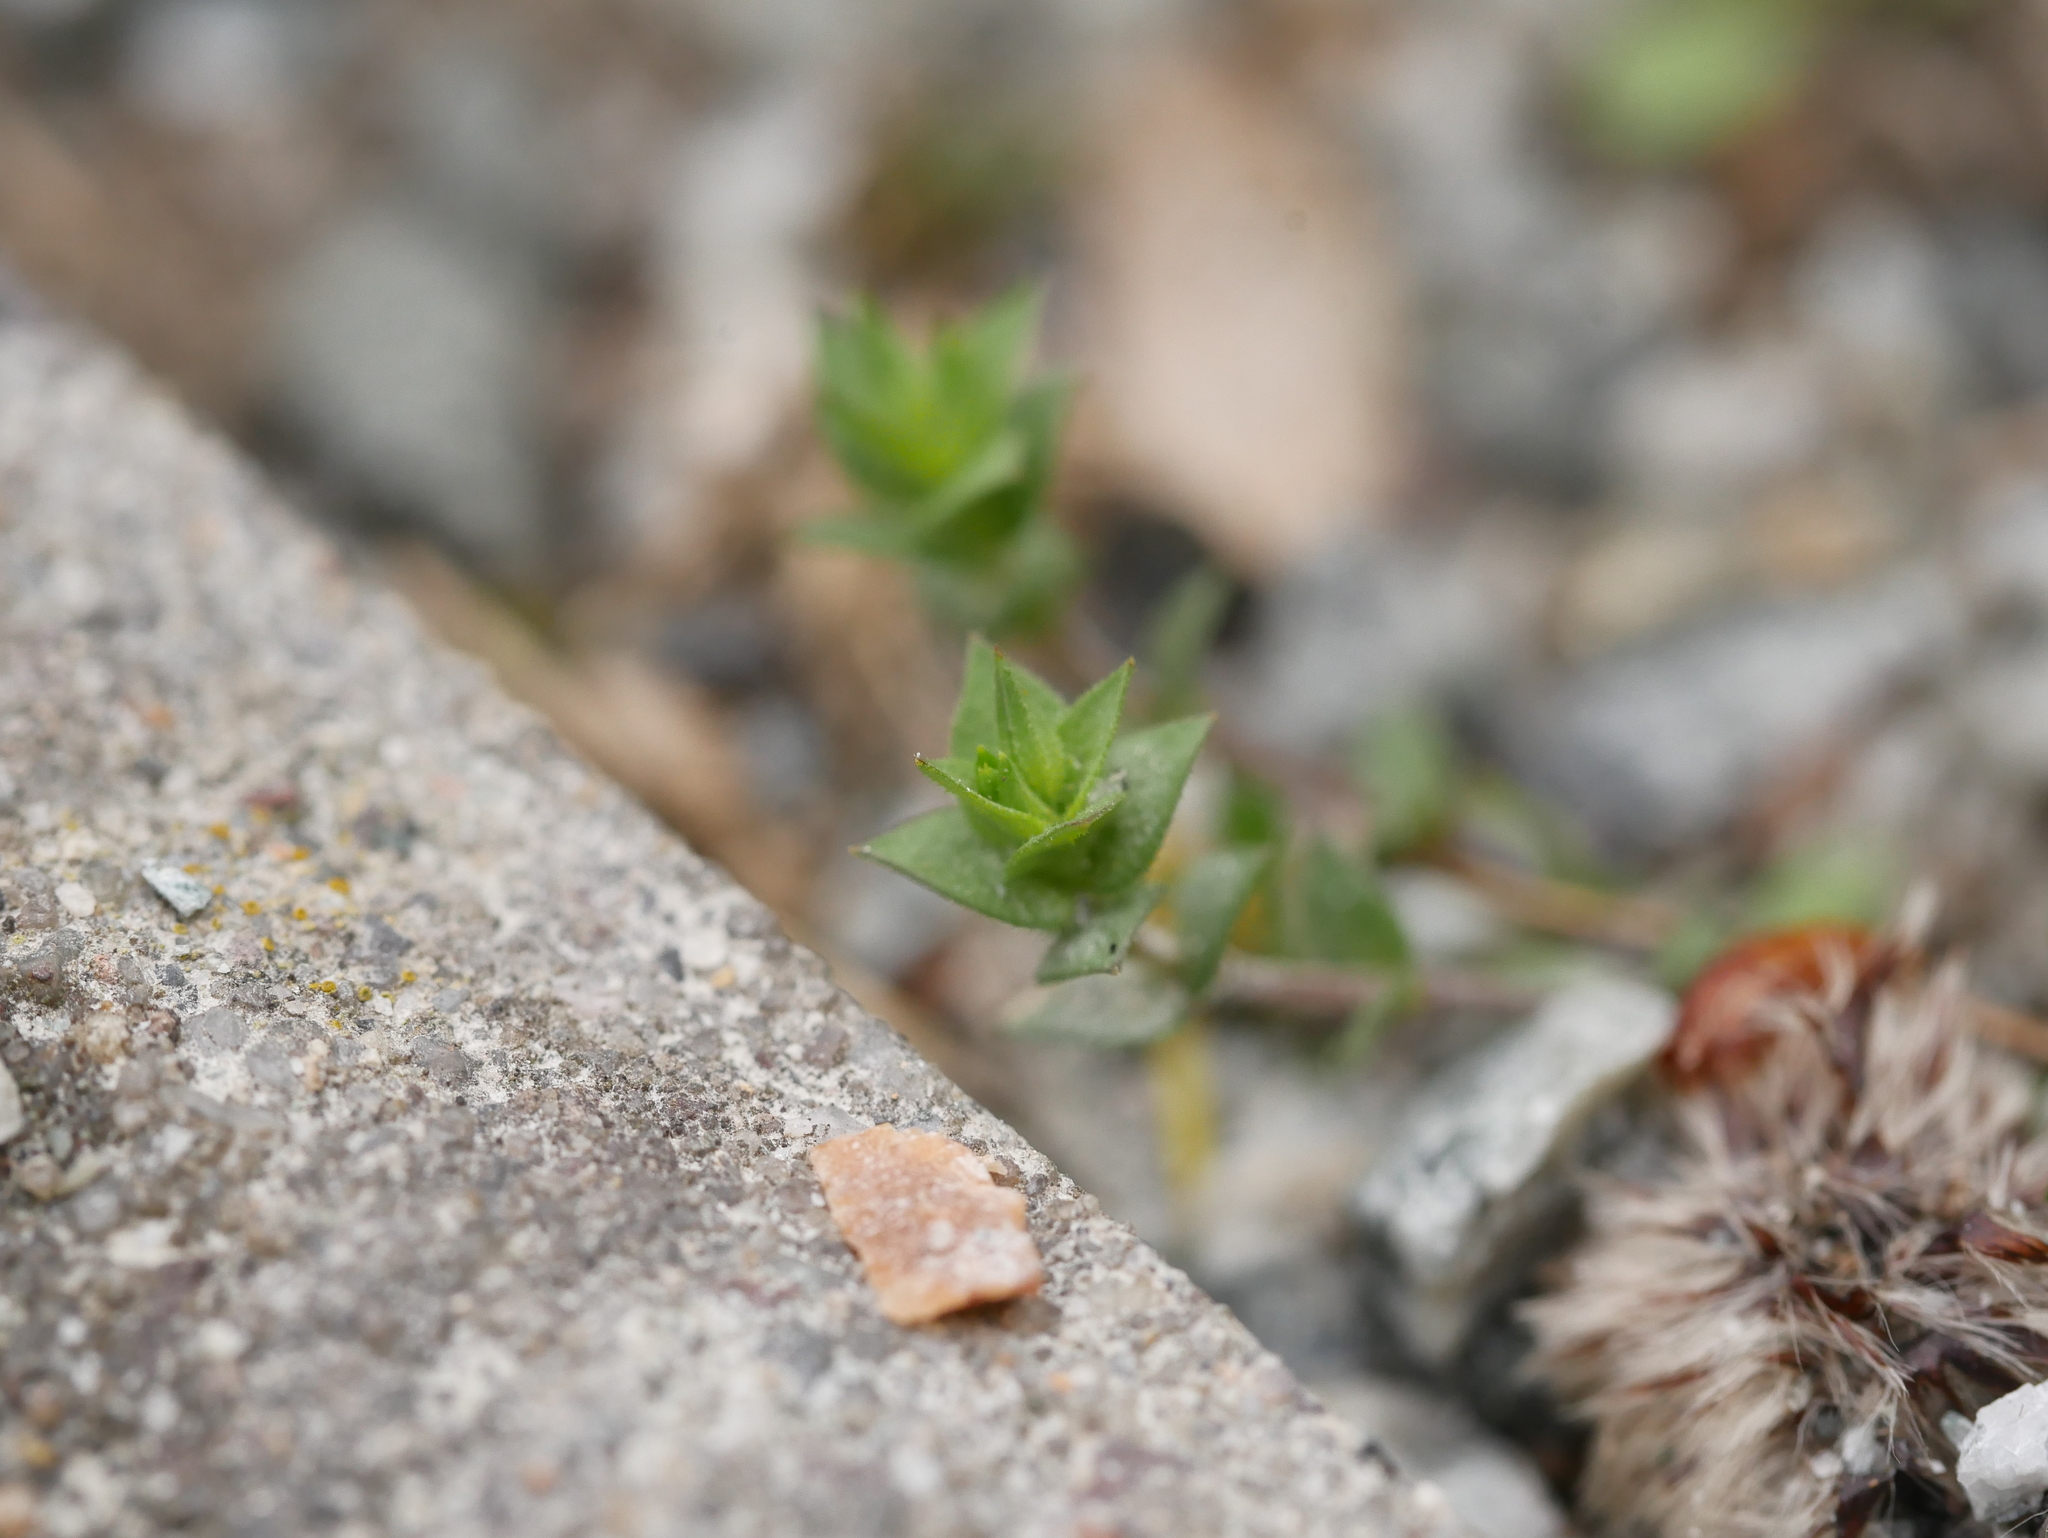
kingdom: Plantae
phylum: Tracheophyta
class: Magnoliopsida
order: Caryophyllales
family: Caryophyllaceae
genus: Arenaria
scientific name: Arenaria serpyllifolia
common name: Thyme-leaved sandwort
